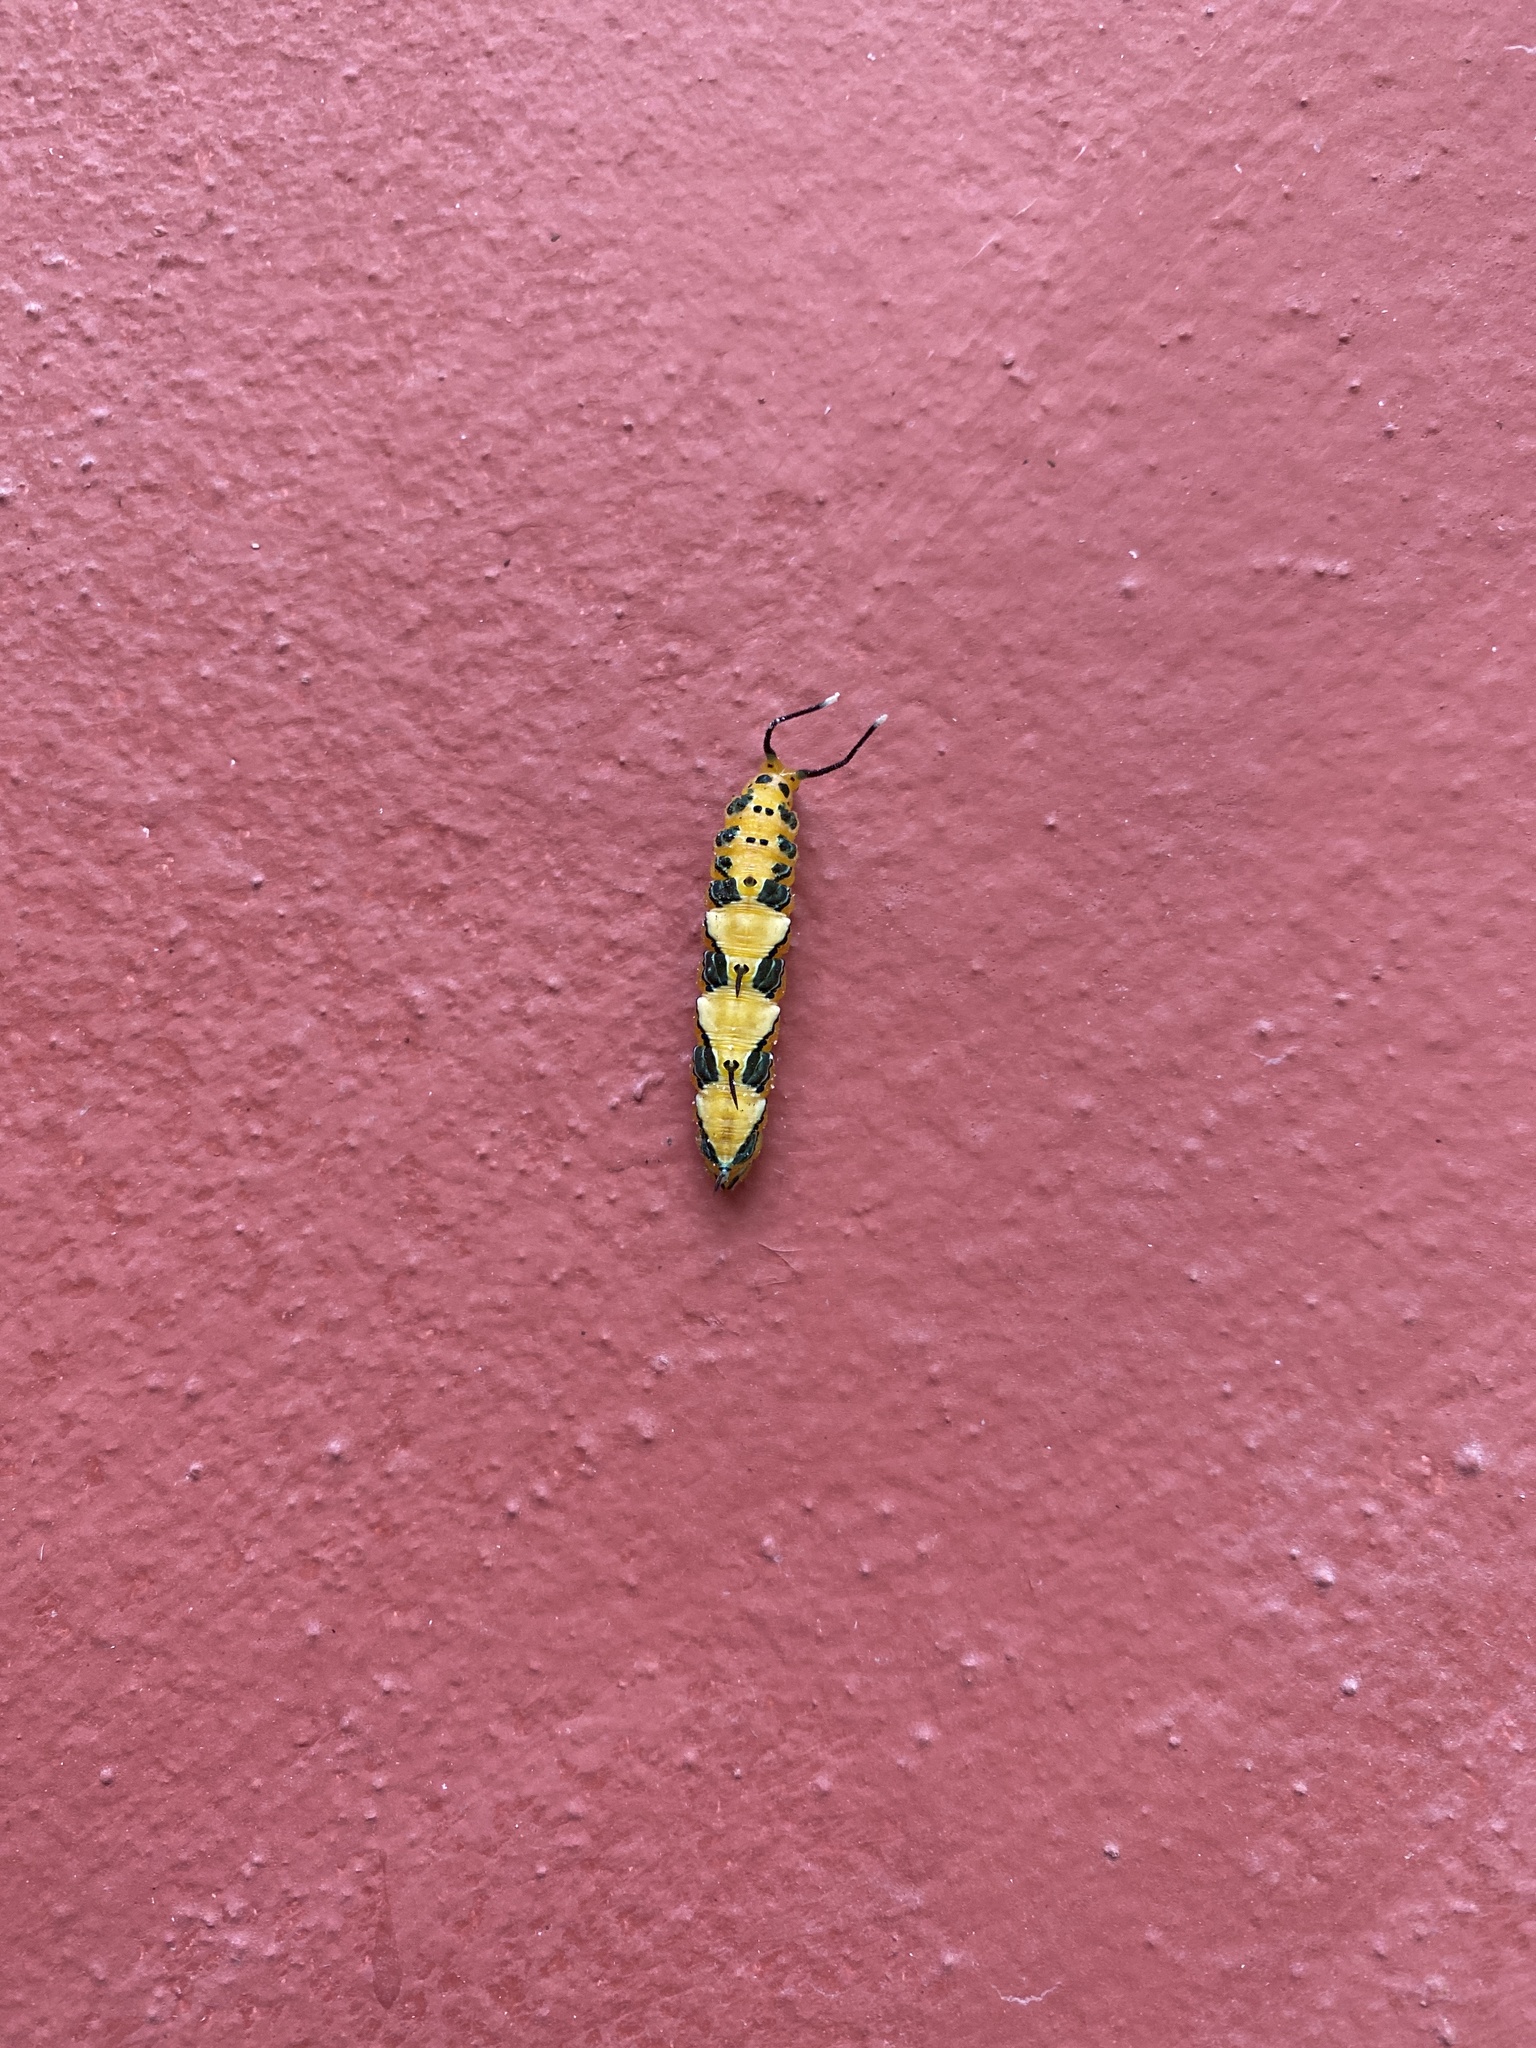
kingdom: Animalia
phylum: Arthropoda
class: Insecta
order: Lepidoptera
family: Nymphalidae
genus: Marpesia
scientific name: Marpesia petreus
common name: Red dagger wing
